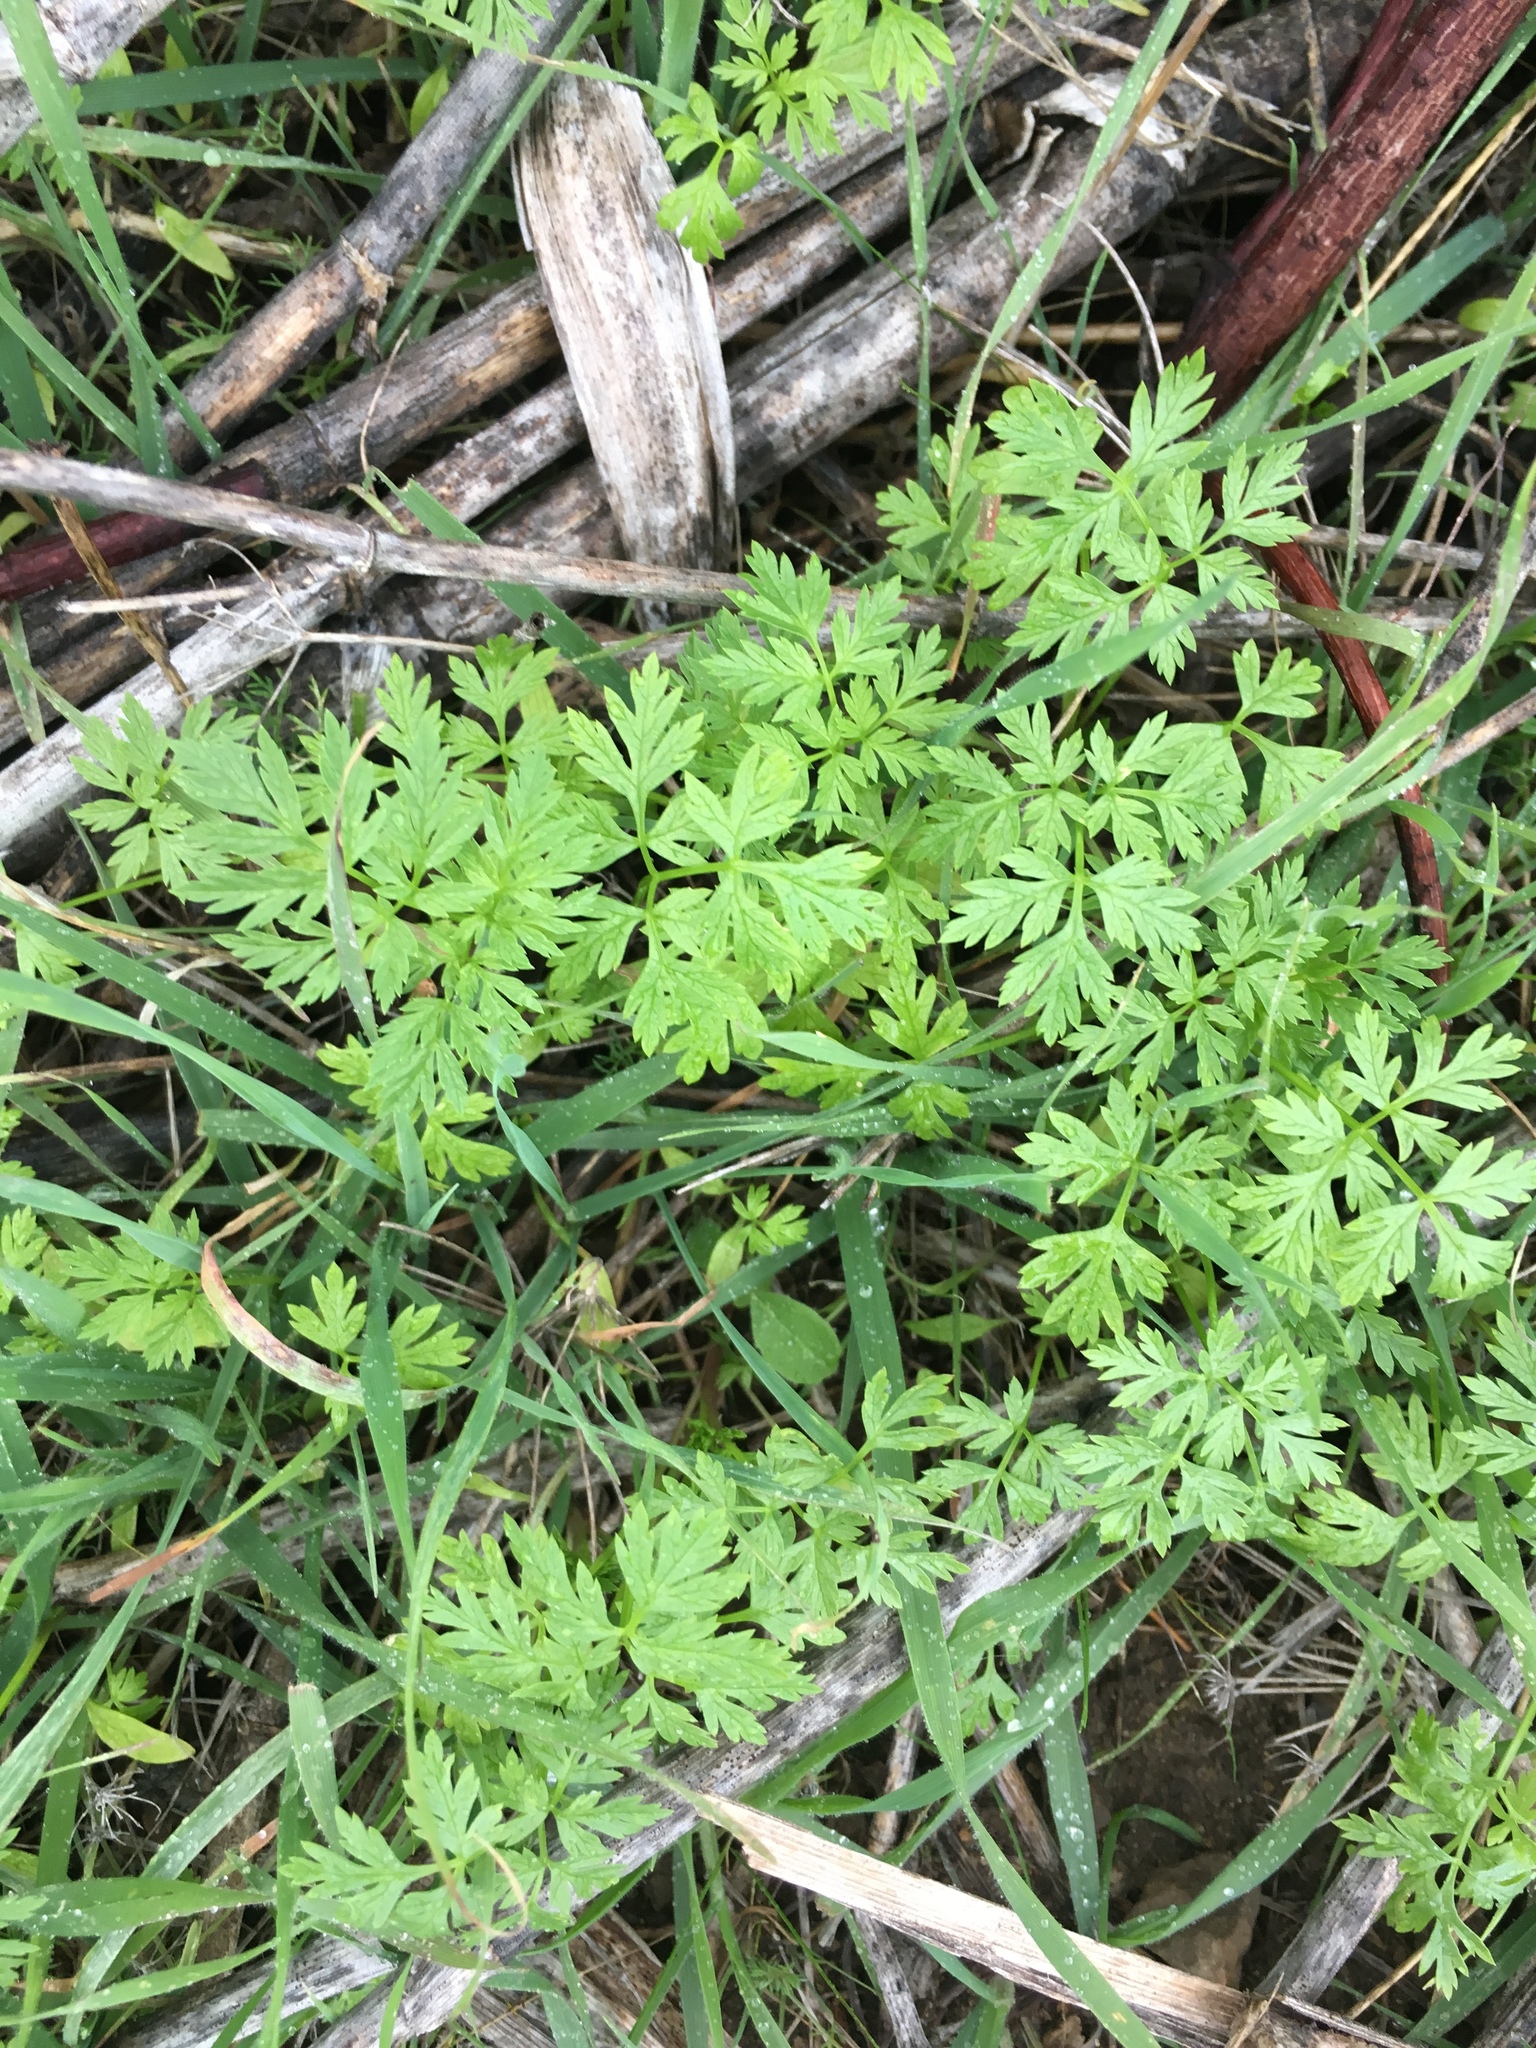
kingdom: Plantae
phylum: Tracheophyta
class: Magnoliopsida
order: Apiales
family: Apiaceae
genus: Conium
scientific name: Conium maculatum
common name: Hemlock
